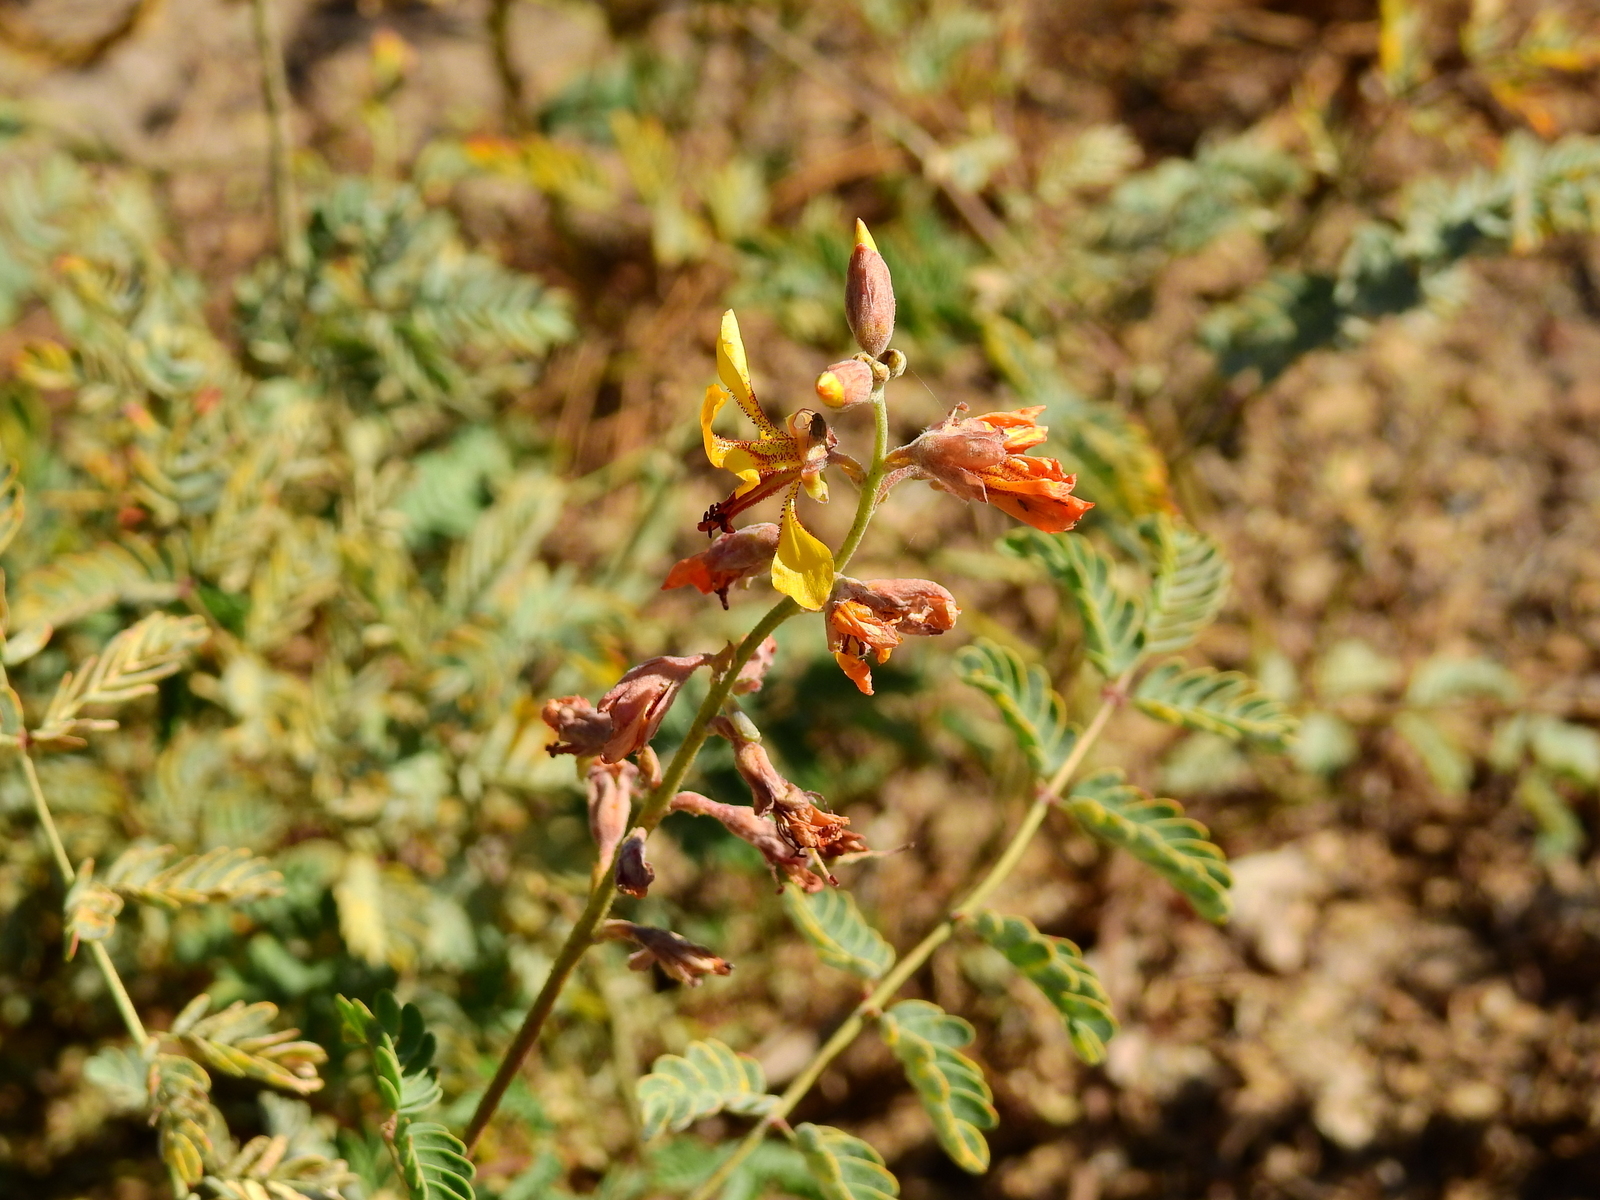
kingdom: Plantae
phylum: Tracheophyta
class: Magnoliopsida
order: Fabales
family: Fabaceae
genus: Hoffmannseggia
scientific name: Hoffmannseggia glauca
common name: Pignut
